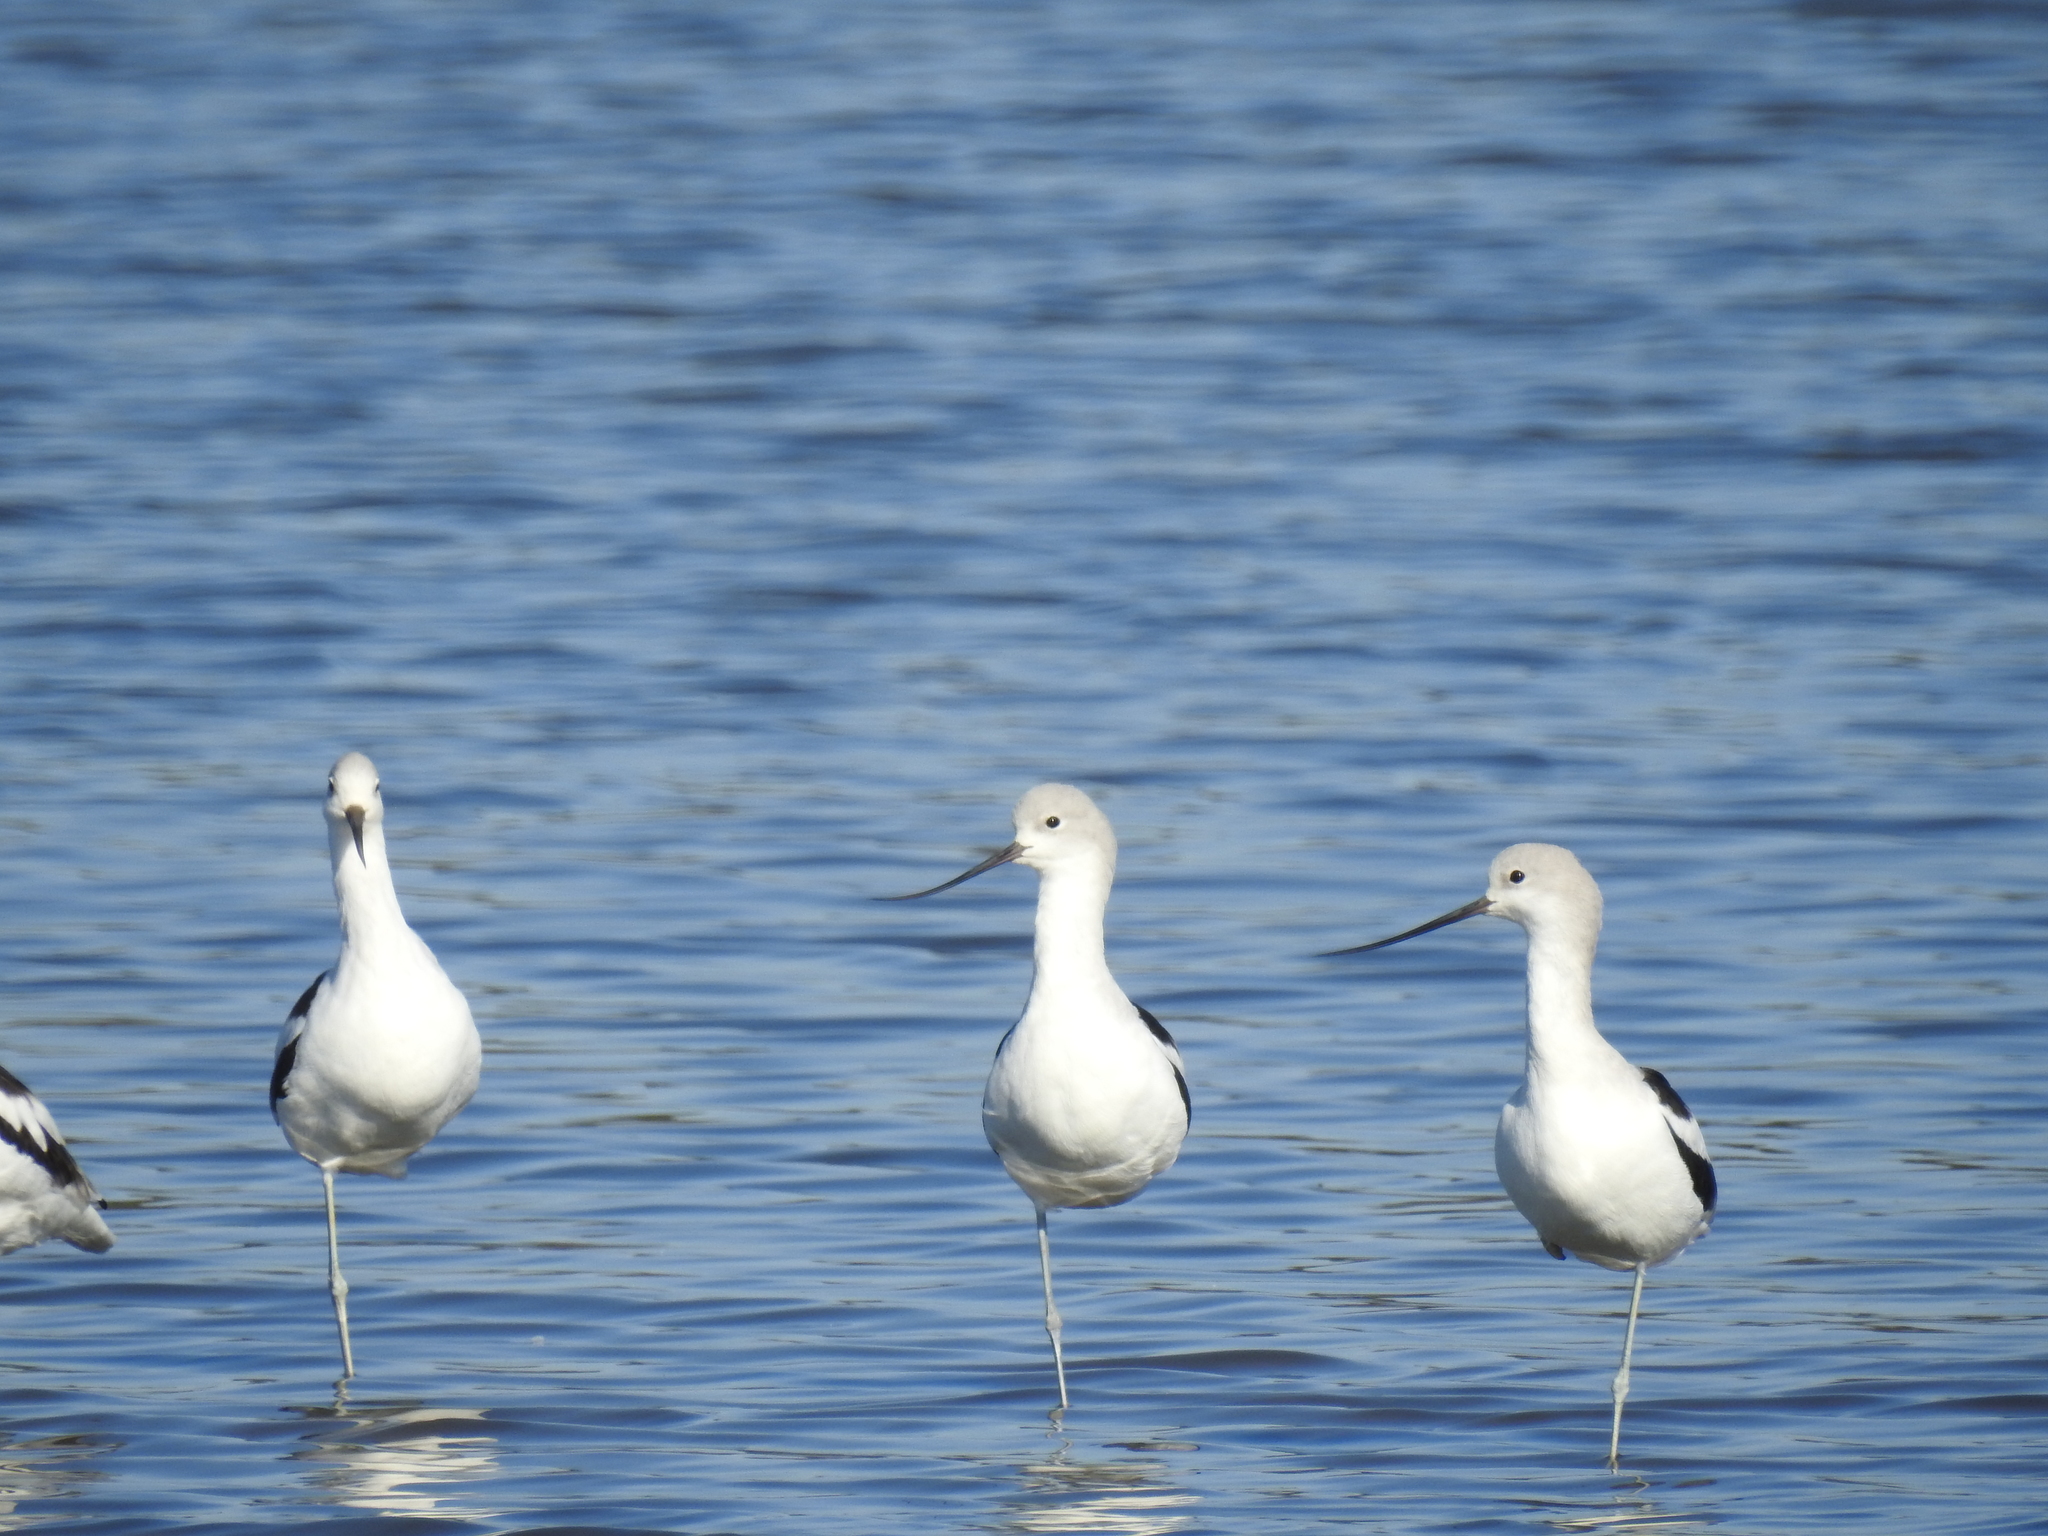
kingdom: Animalia
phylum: Chordata
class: Aves
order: Charadriiformes
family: Recurvirostridae
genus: Recurvirostra
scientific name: Recurvirostra americana
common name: American avocet
